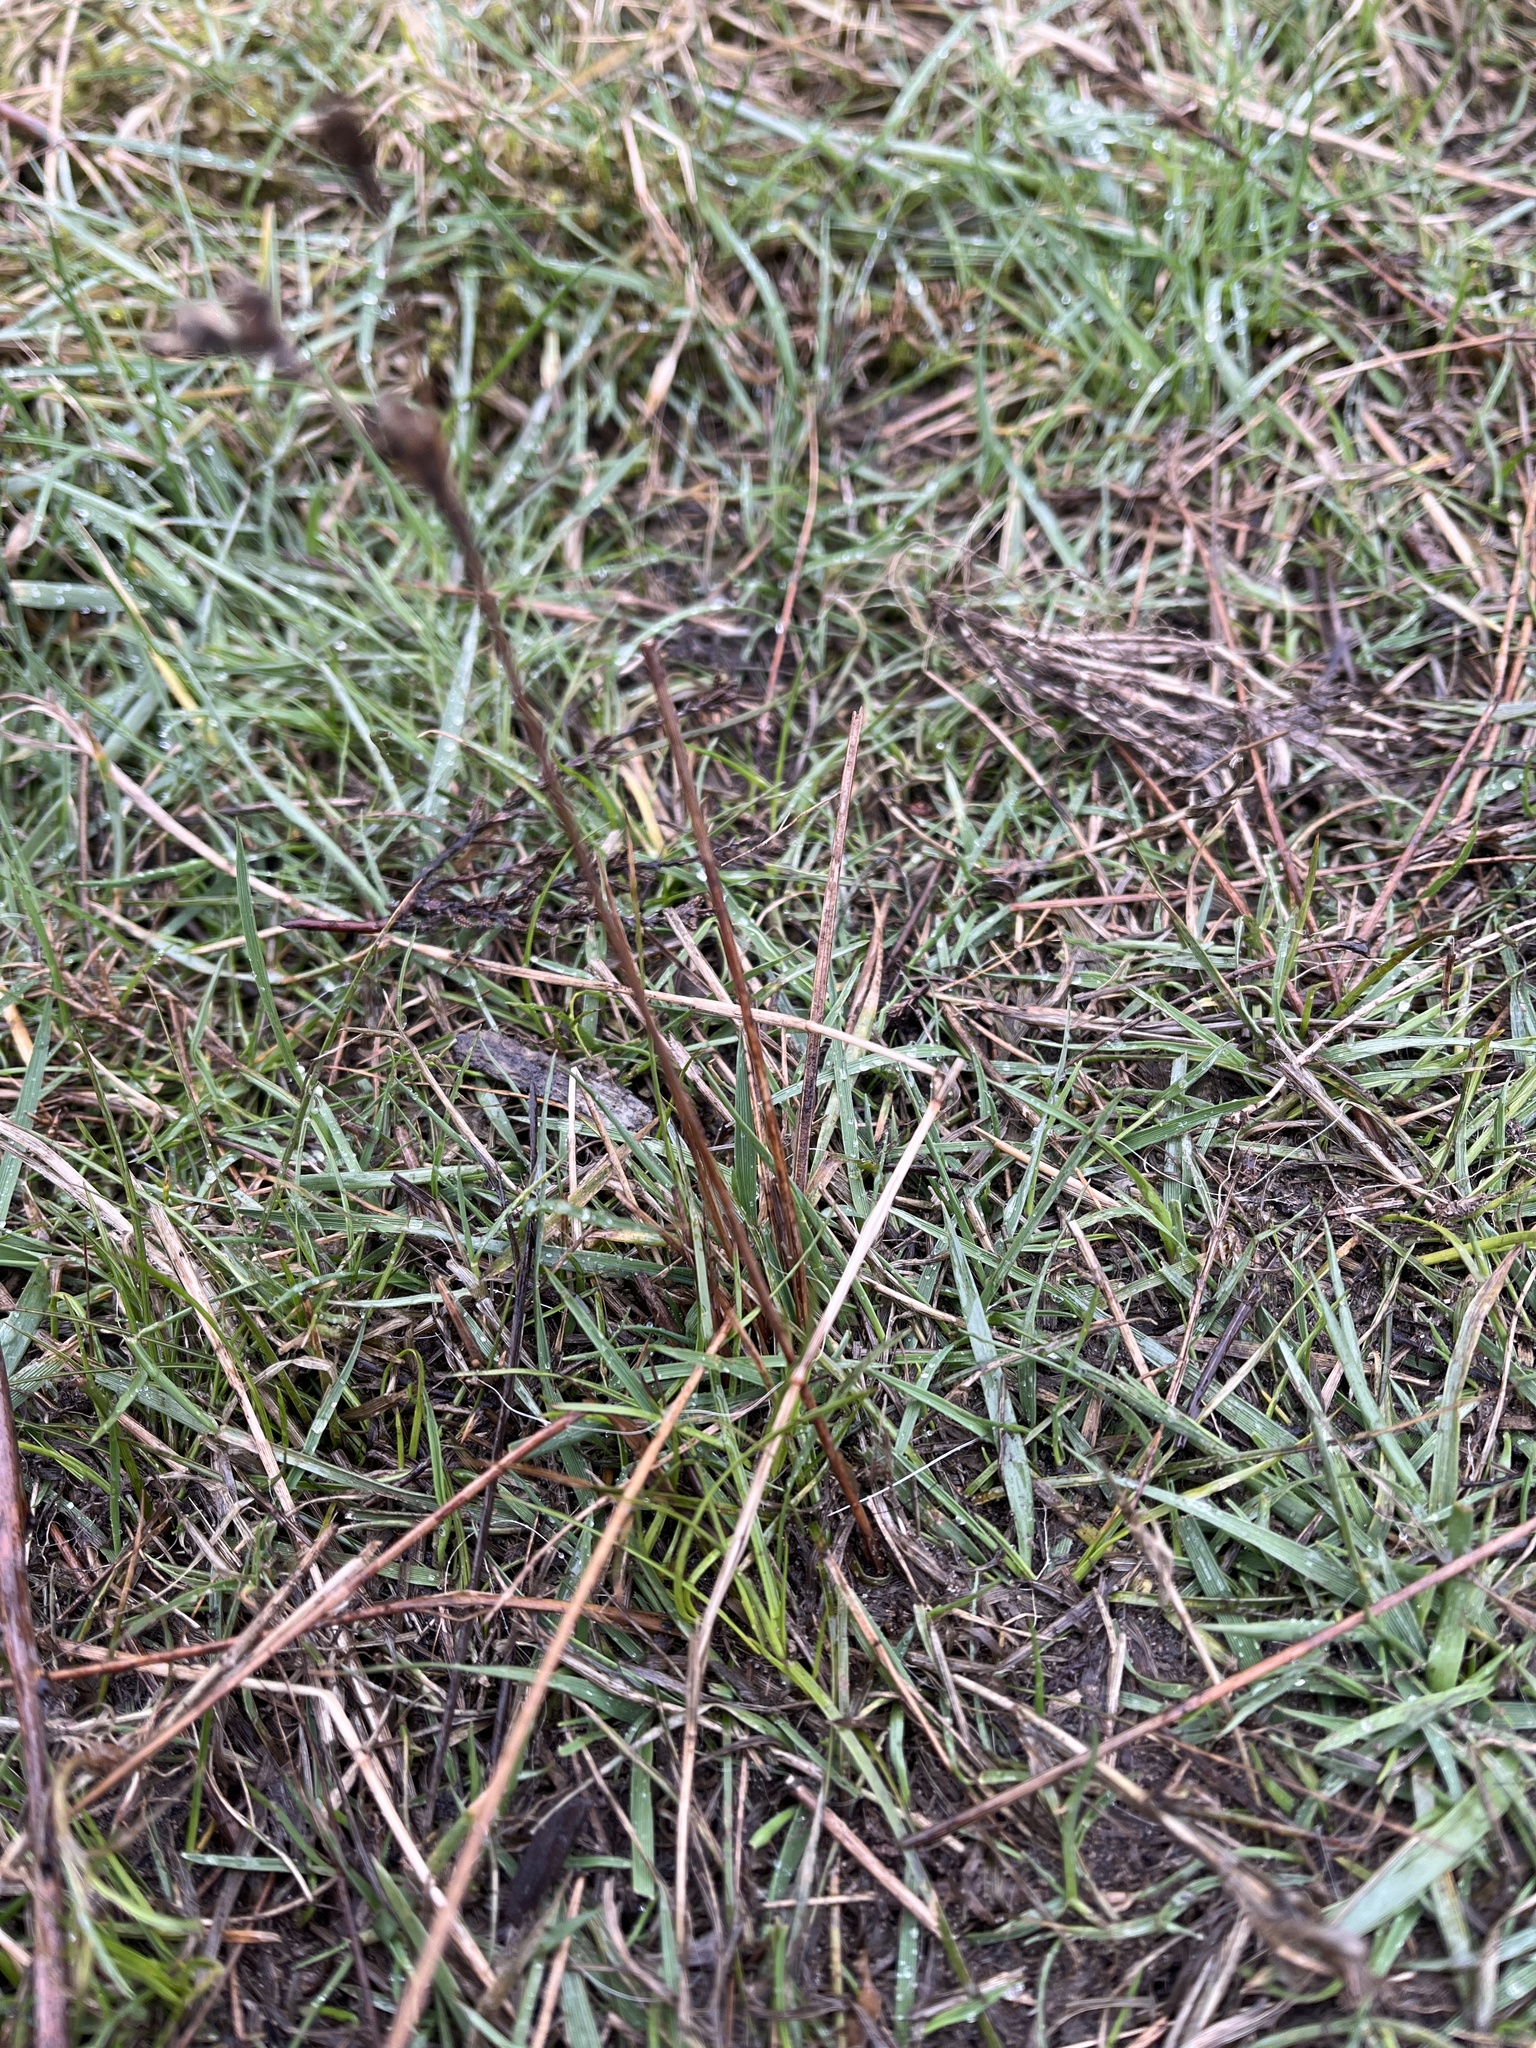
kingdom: Plantae
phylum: Tracheophyta
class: Liliopsida
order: Poales
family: Juncaceae
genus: Juncus
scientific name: Juncus squarrosus
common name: Heath rush
